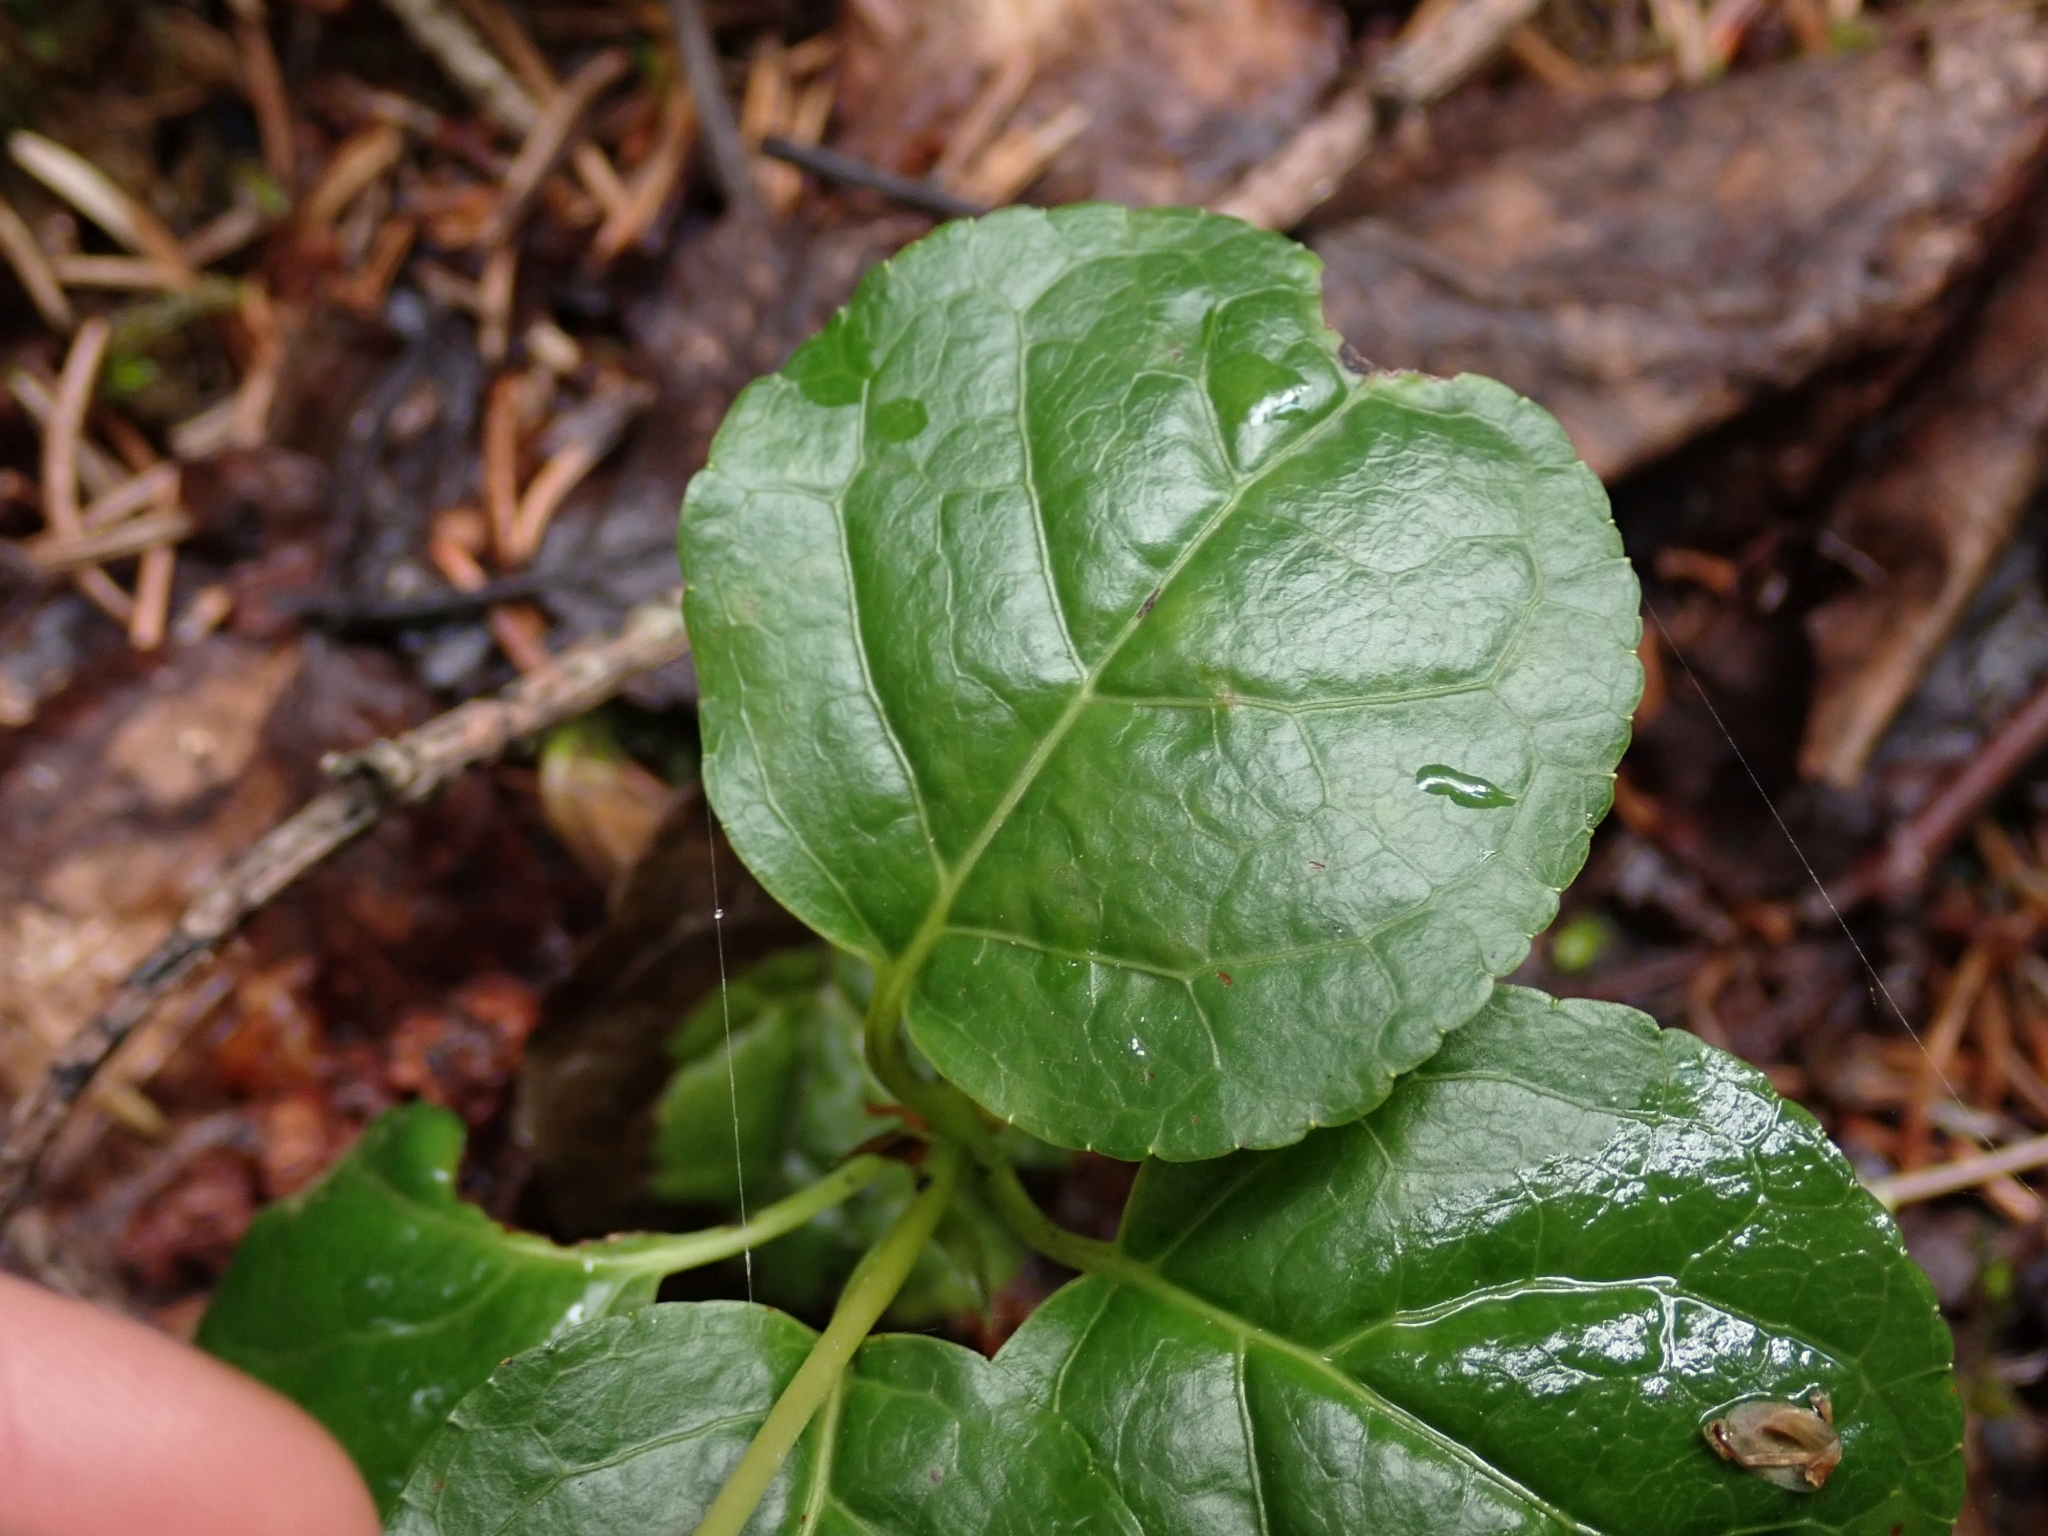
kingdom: Plantae
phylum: Tracheophyta
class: Magnoliopsida
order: Ericales
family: Ericaceae
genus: Orthilia
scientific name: Orthilia secunda
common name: One-sided orthilia
